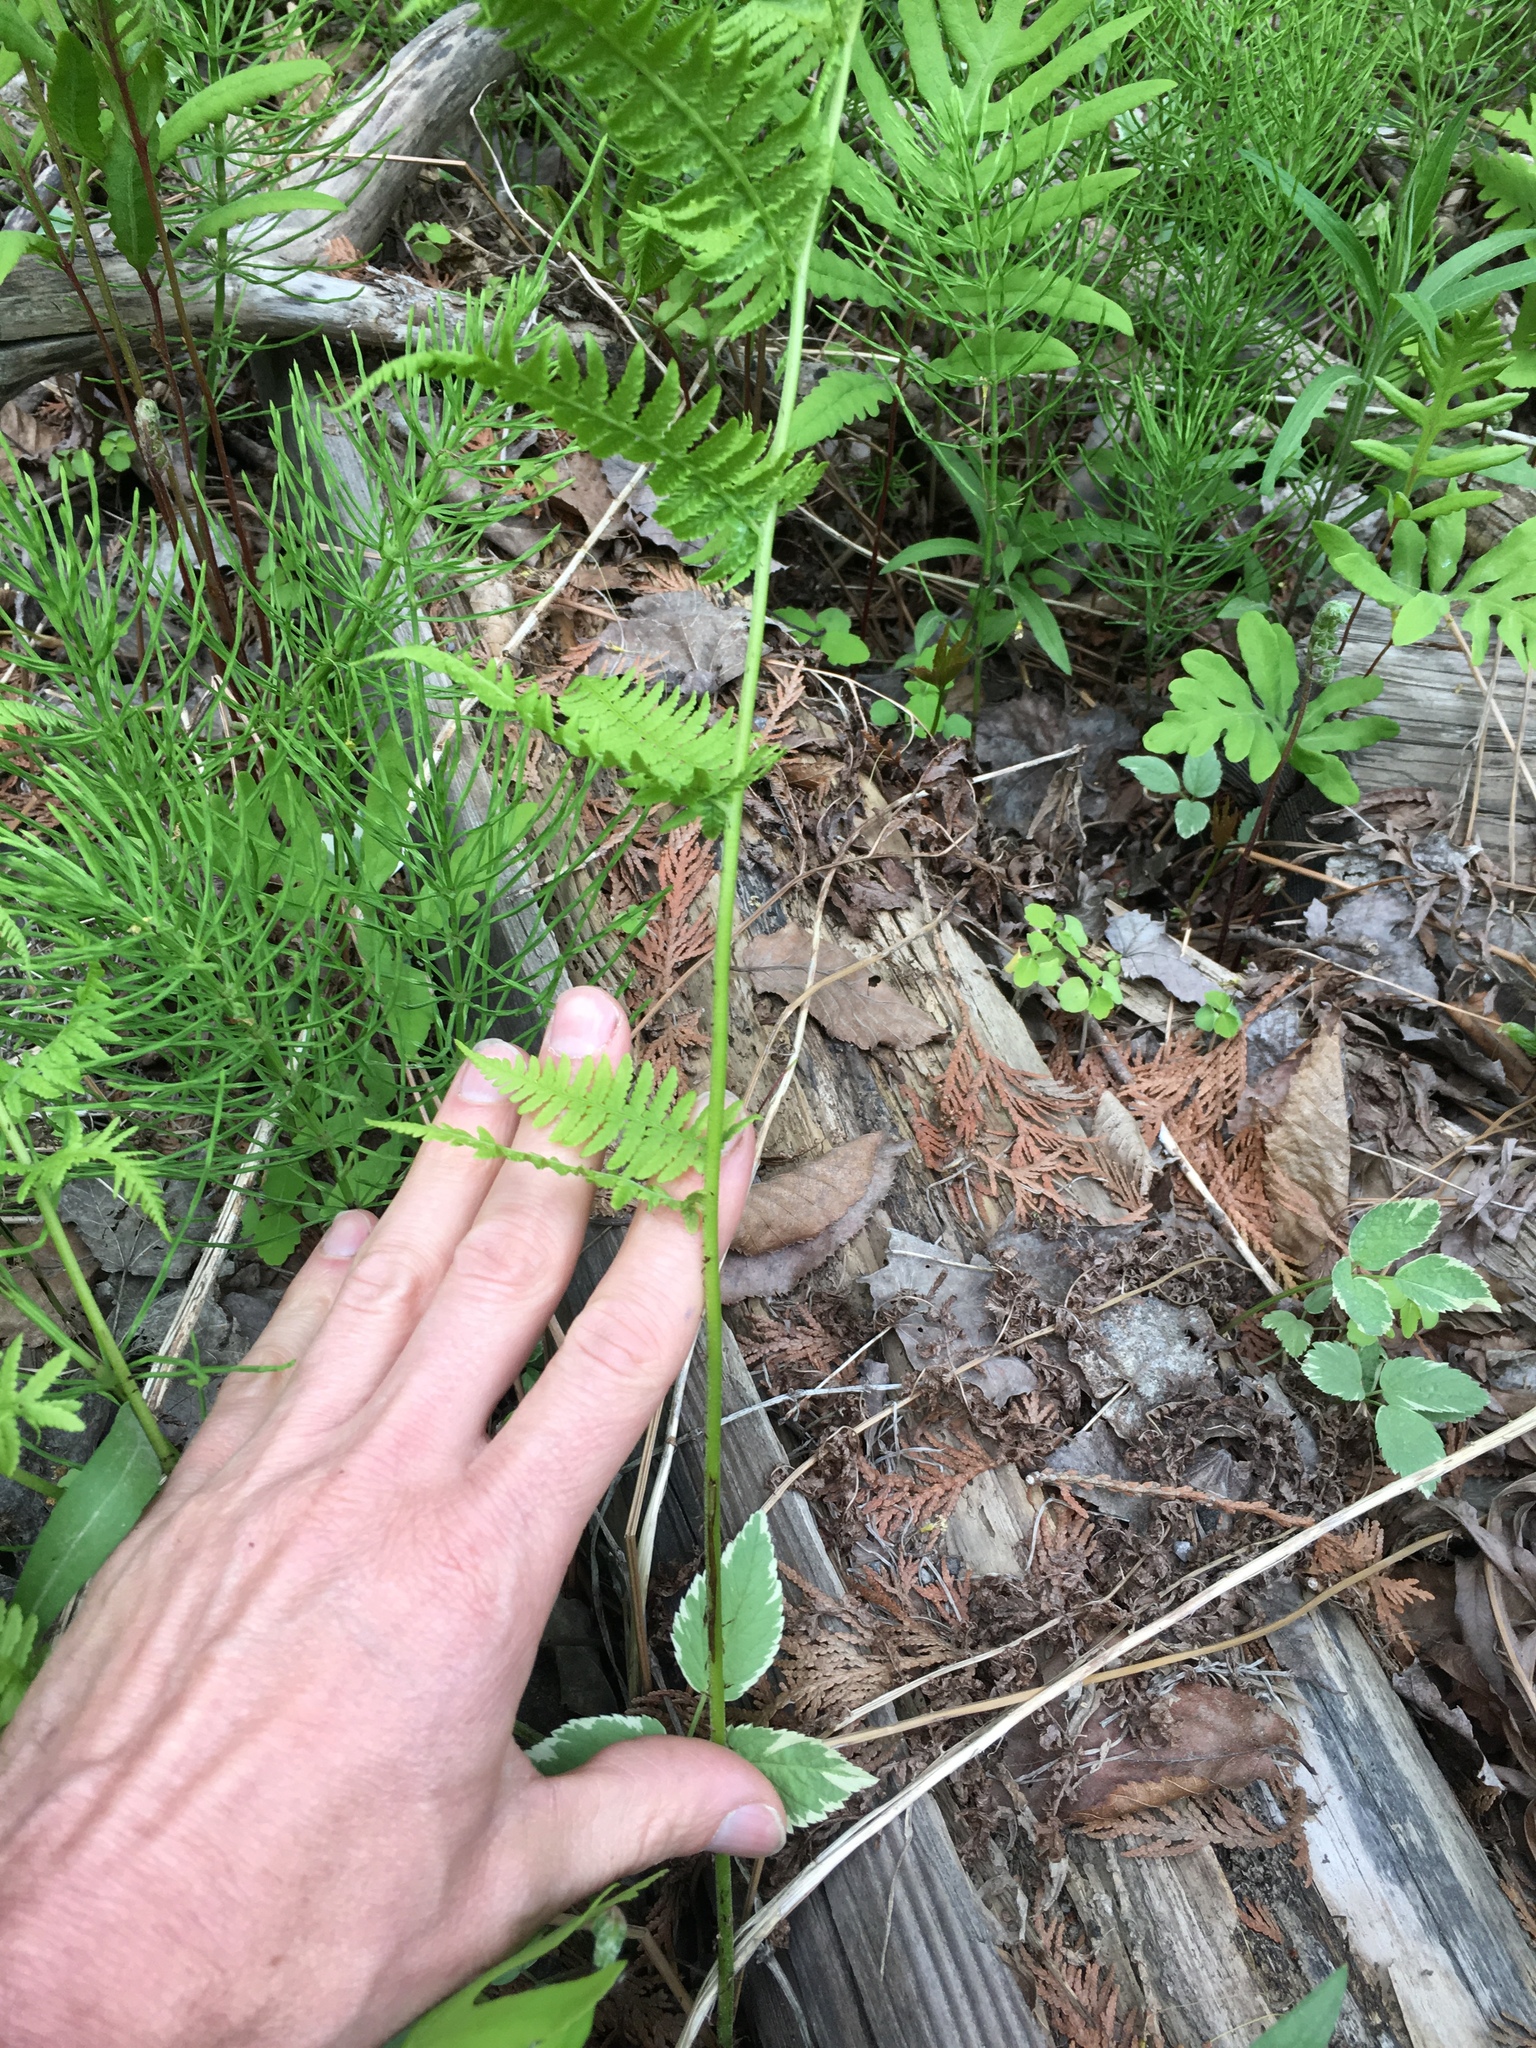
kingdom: Plantae
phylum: Tracheophyta
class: Polypodiopsida
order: Polypodiales
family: Thelypteridaceae
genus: Thelypteris
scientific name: Thelypteris palustris
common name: Marsh fern
